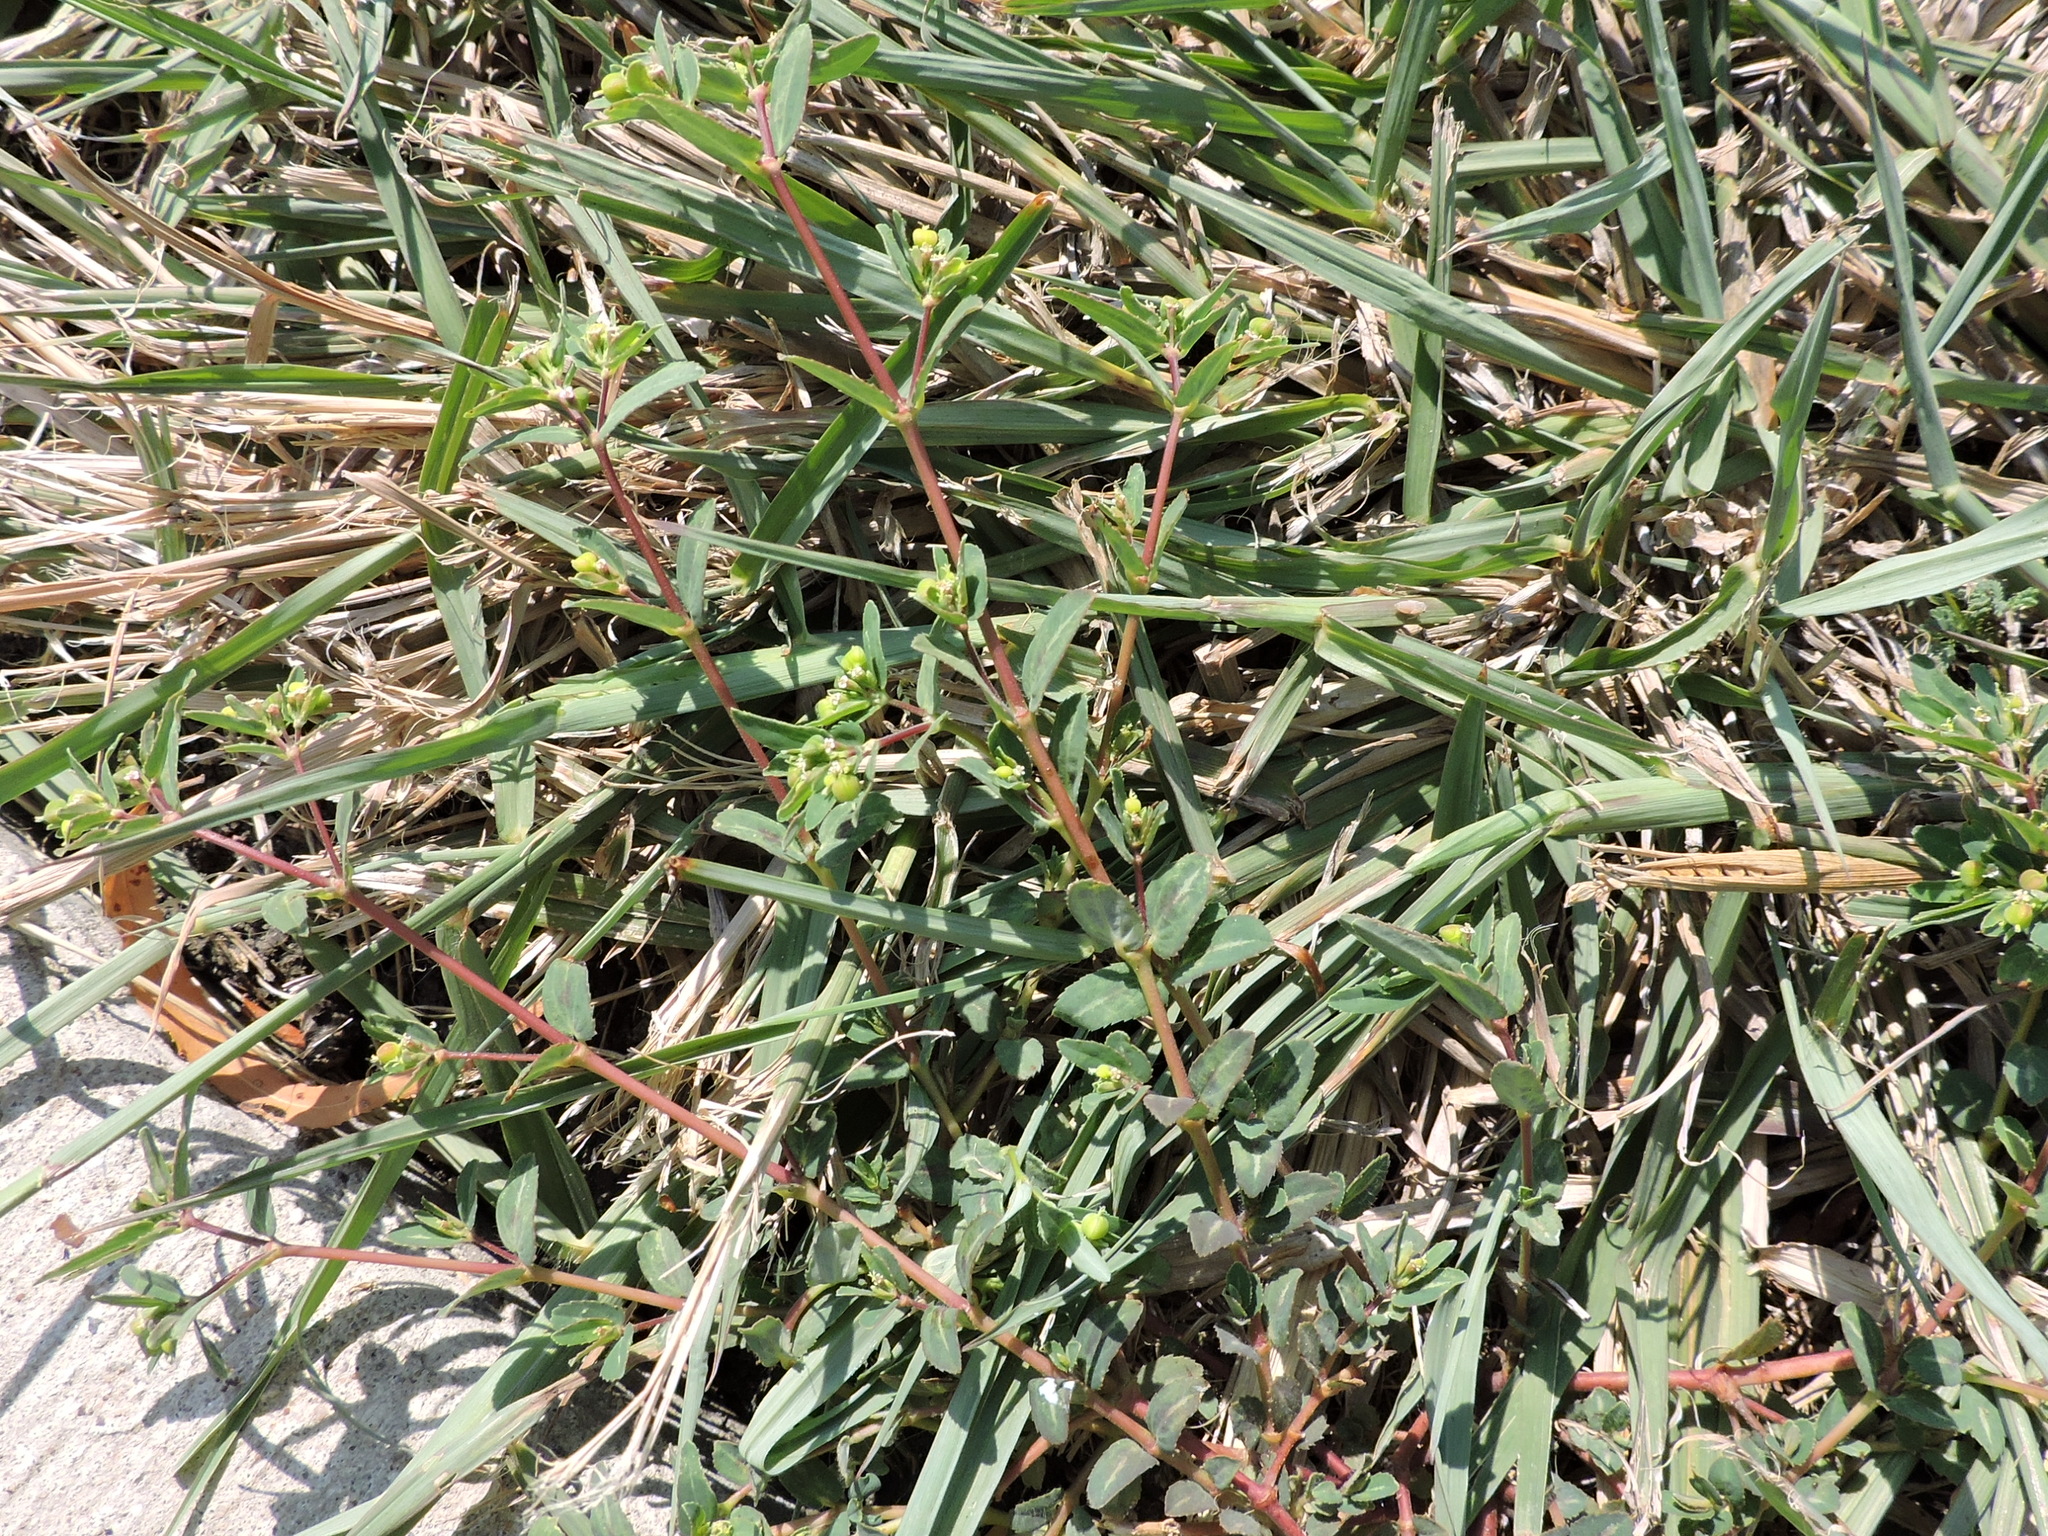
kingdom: Plantae
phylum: Tracheophyta
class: Magnoliopsida
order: Malpighiales
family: Euphorbiaceae
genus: Euphorbia
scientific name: Euphorbia nutans
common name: Eyebane
